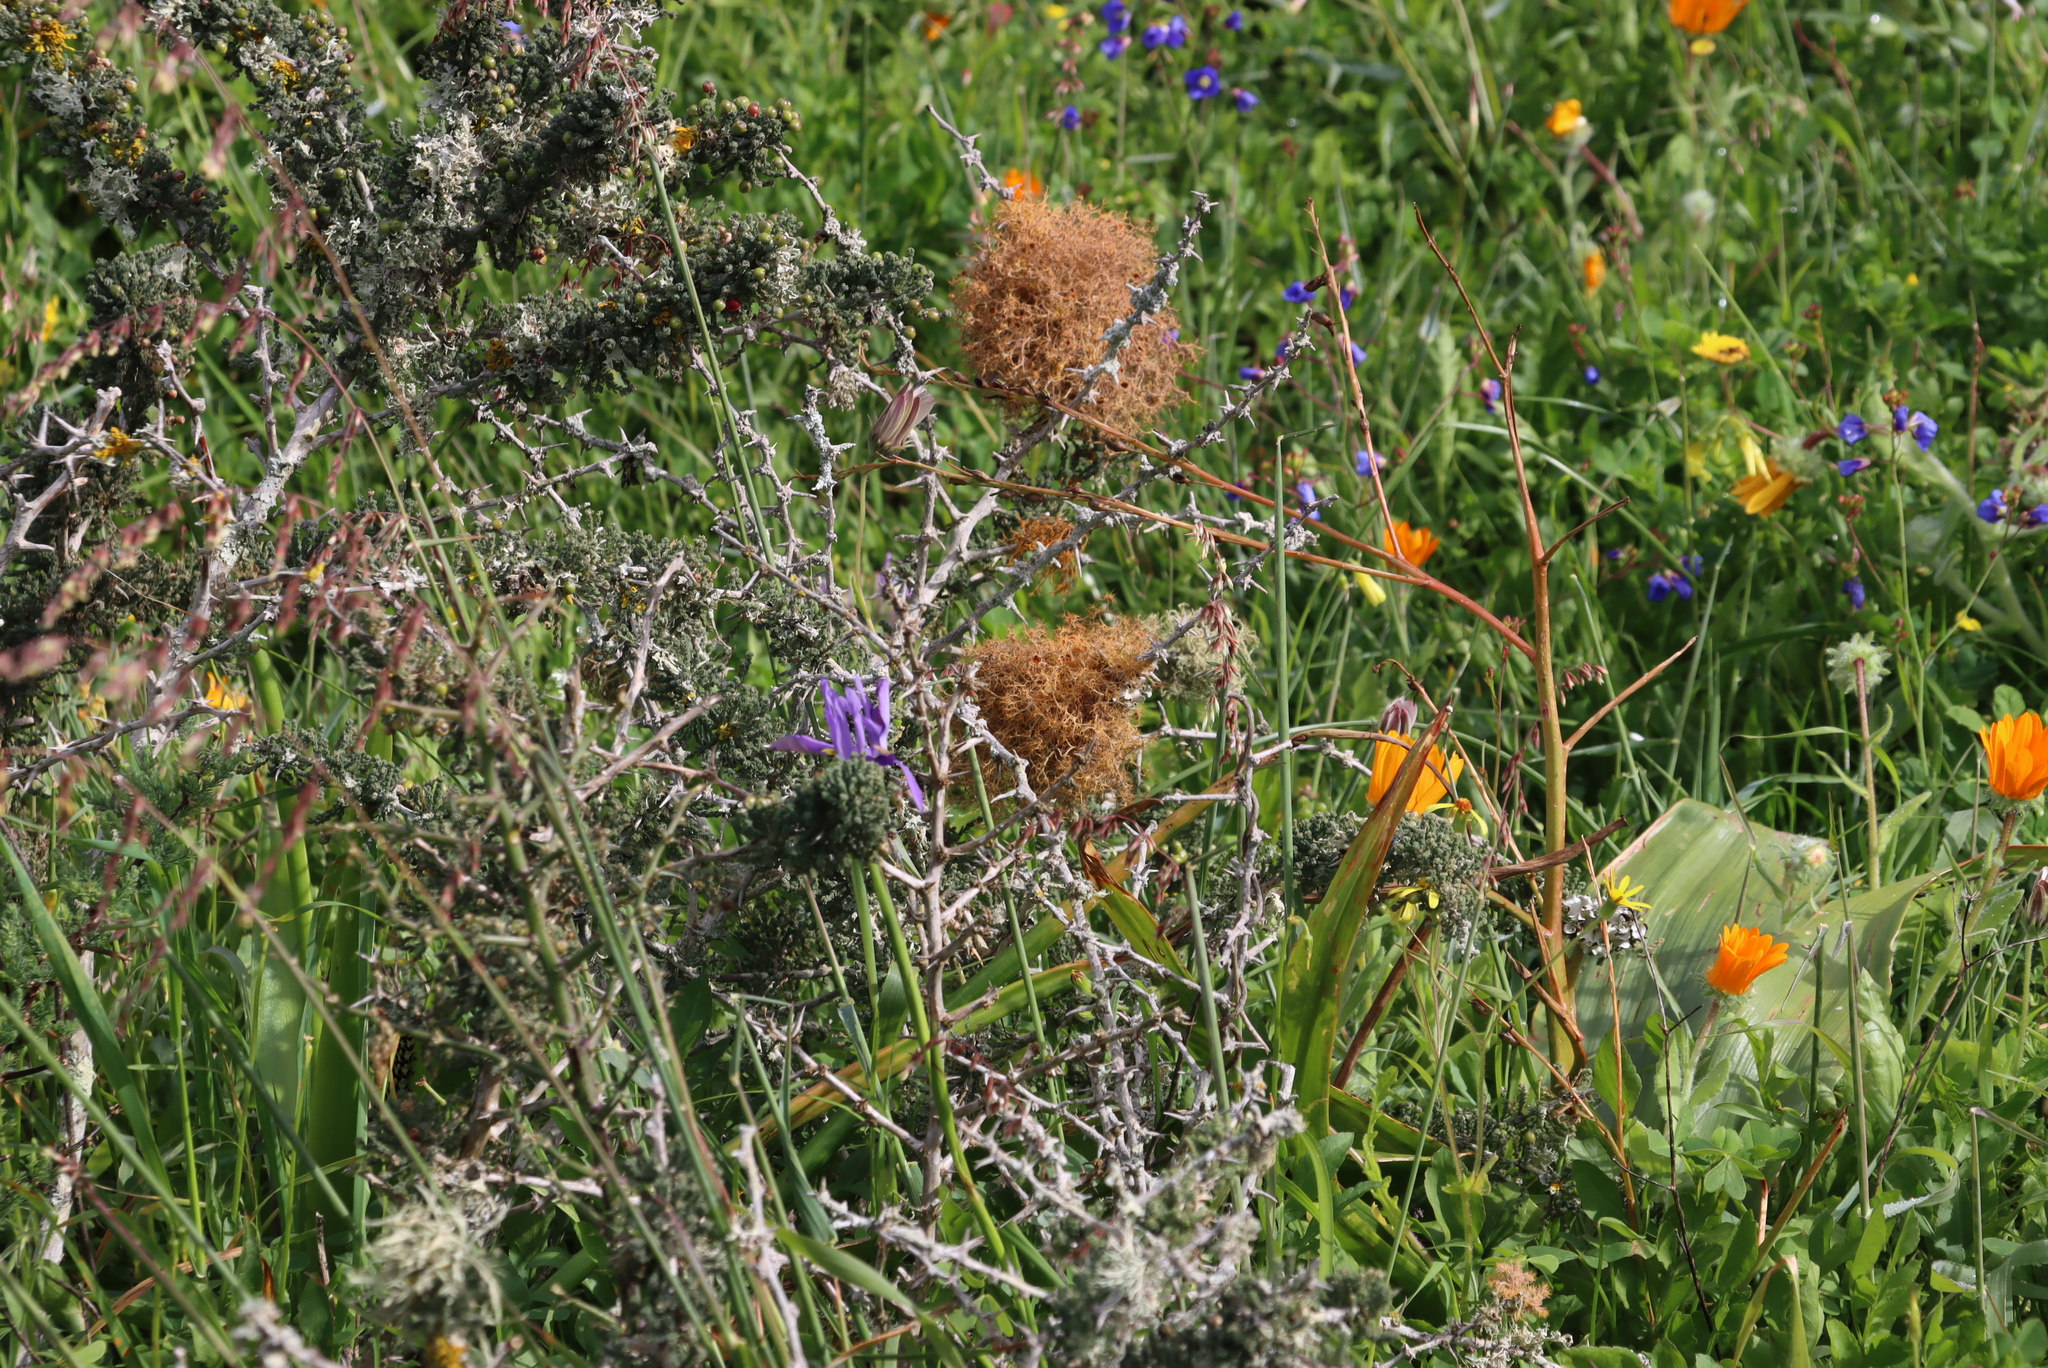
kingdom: Plantae
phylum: Tracheophyta
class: Liliopsida
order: Asparagales
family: Asparagaceae
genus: Asparagus
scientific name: Asparagus capensis
